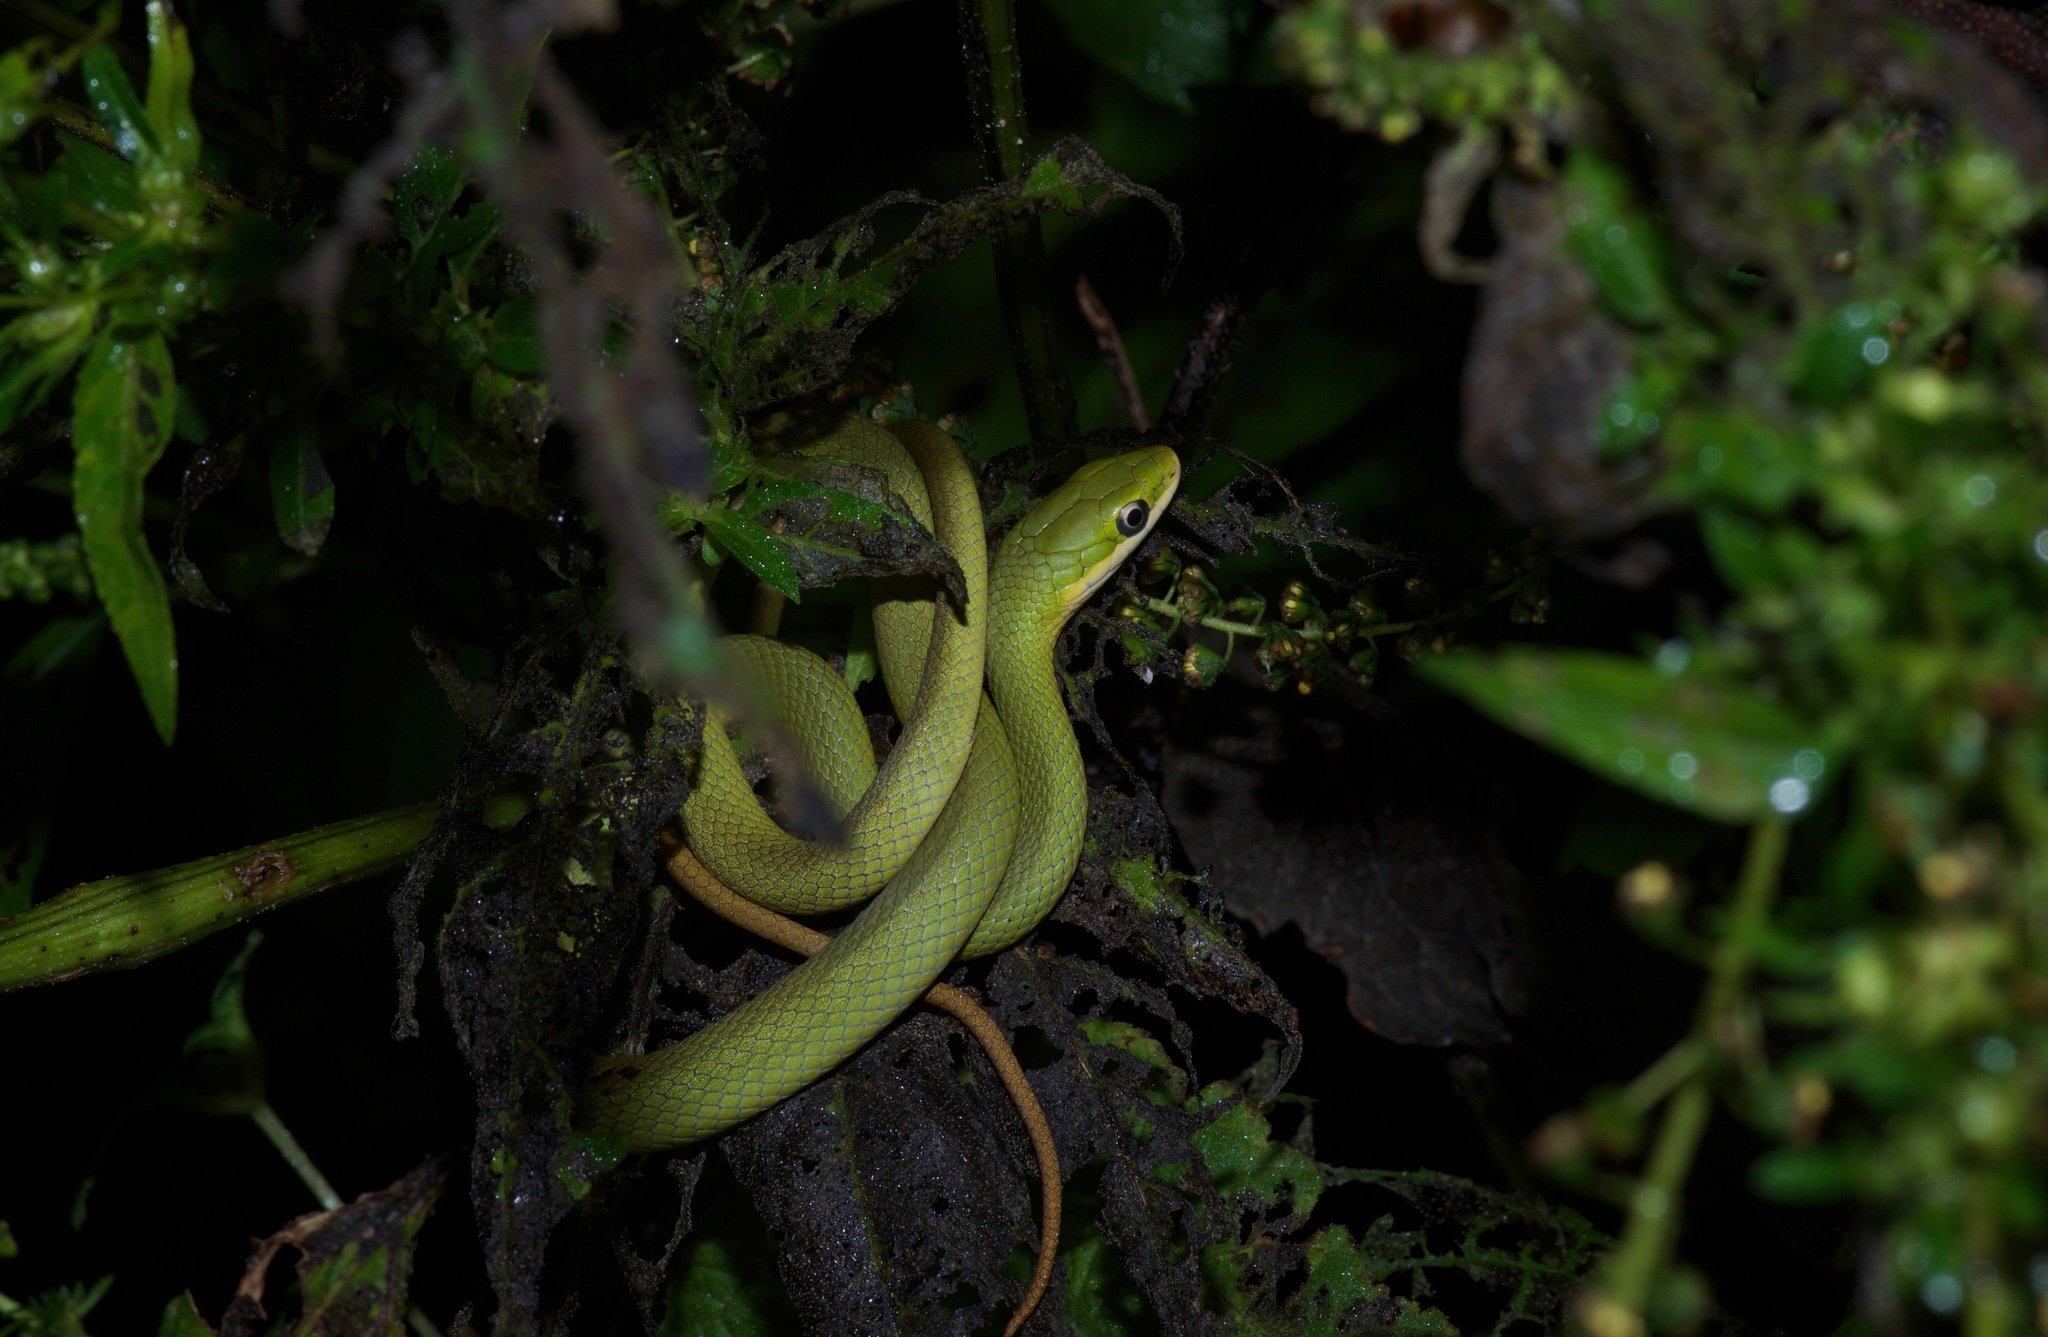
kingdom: Animalia
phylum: Chordata
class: Squamata
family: Colubridae
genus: Opheodrys
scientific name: Opheodrys aestivus
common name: Rough greensnake
